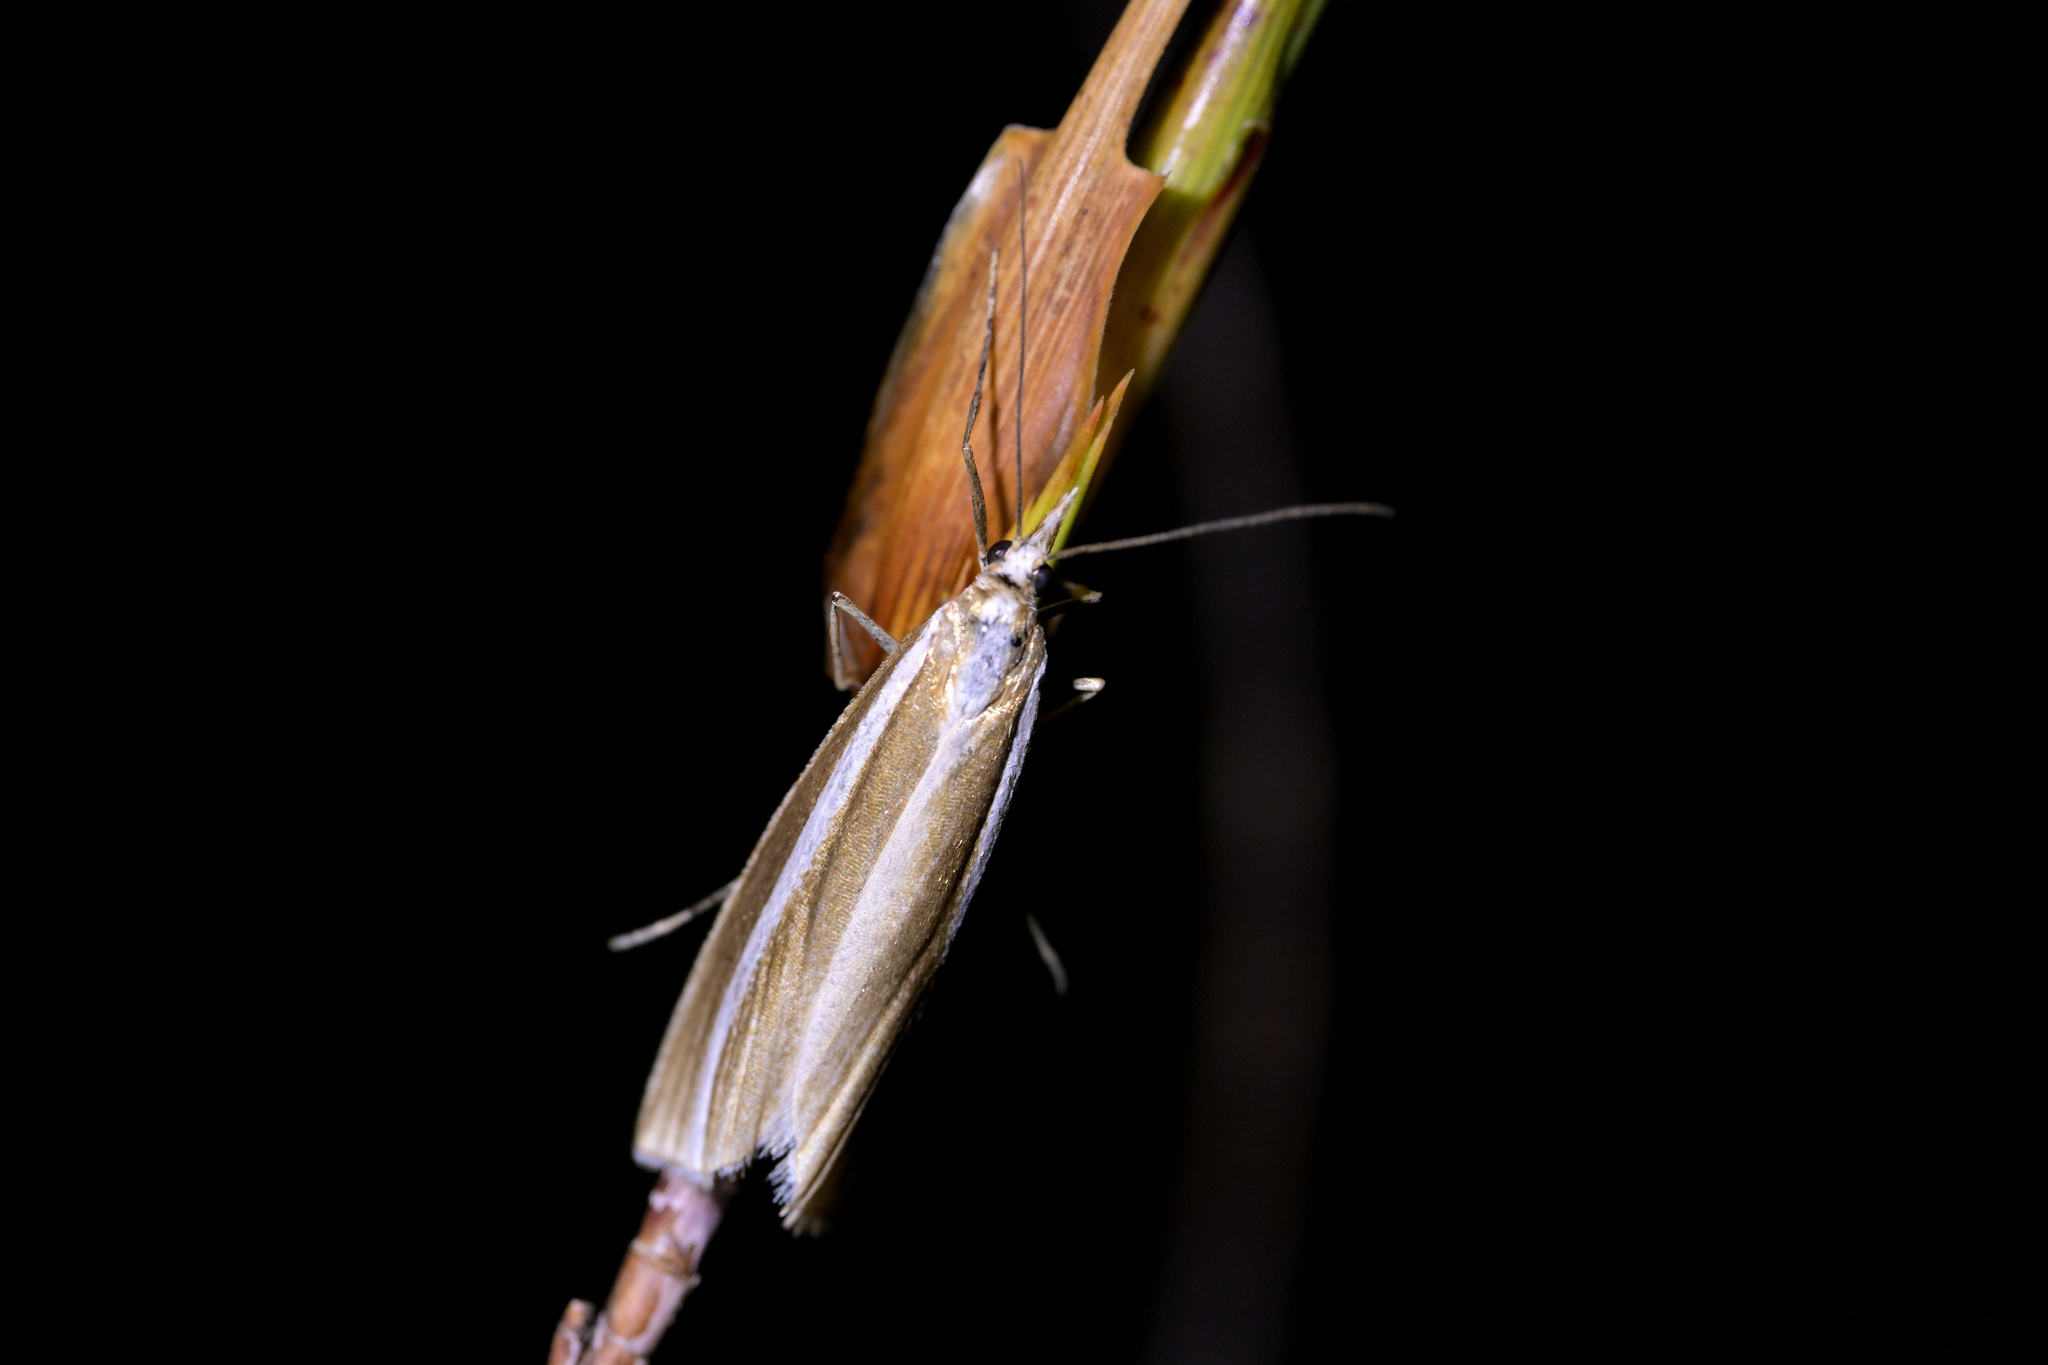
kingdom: Animalia
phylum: Arthropoda
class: Insecta
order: Lepidoptera
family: Crambidae
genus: Orocrambus
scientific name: Orocrambus philpotti
